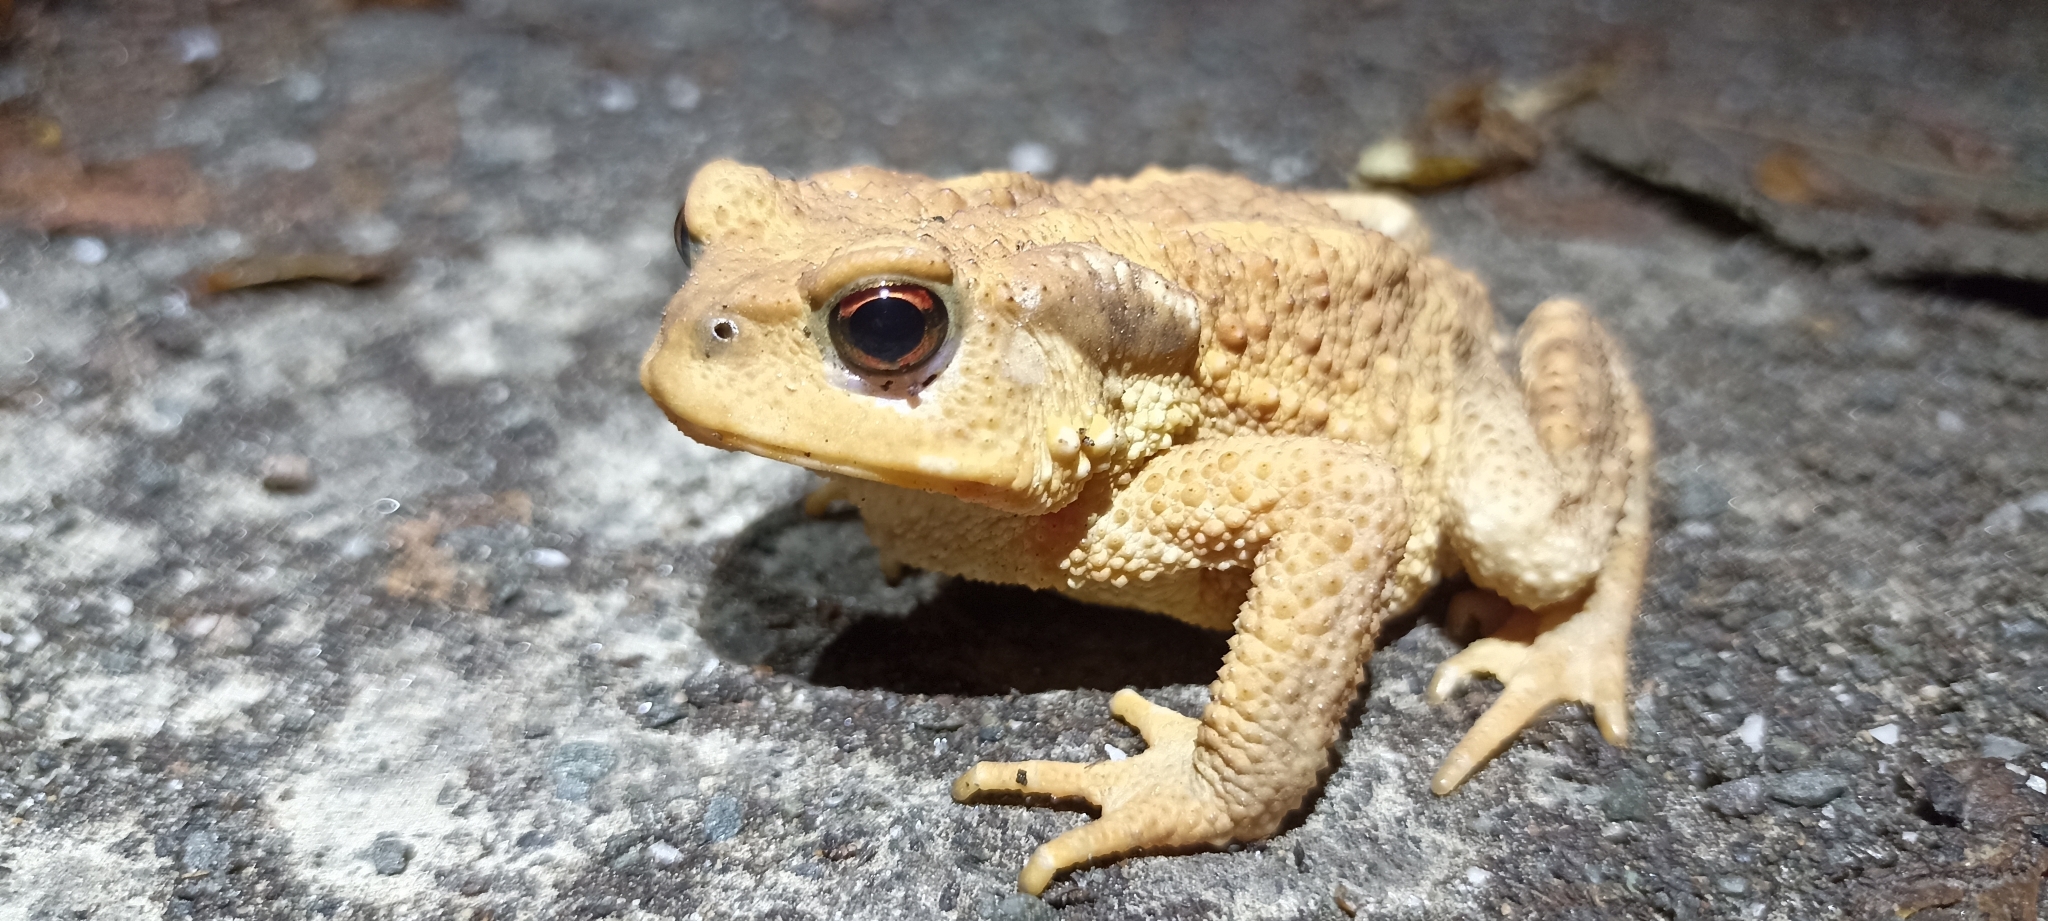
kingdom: Animalia
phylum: Chordata
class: Amphibia
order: Anura
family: Bufonidae
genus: Bufo
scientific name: Bufo spinosus
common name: Western common toad
